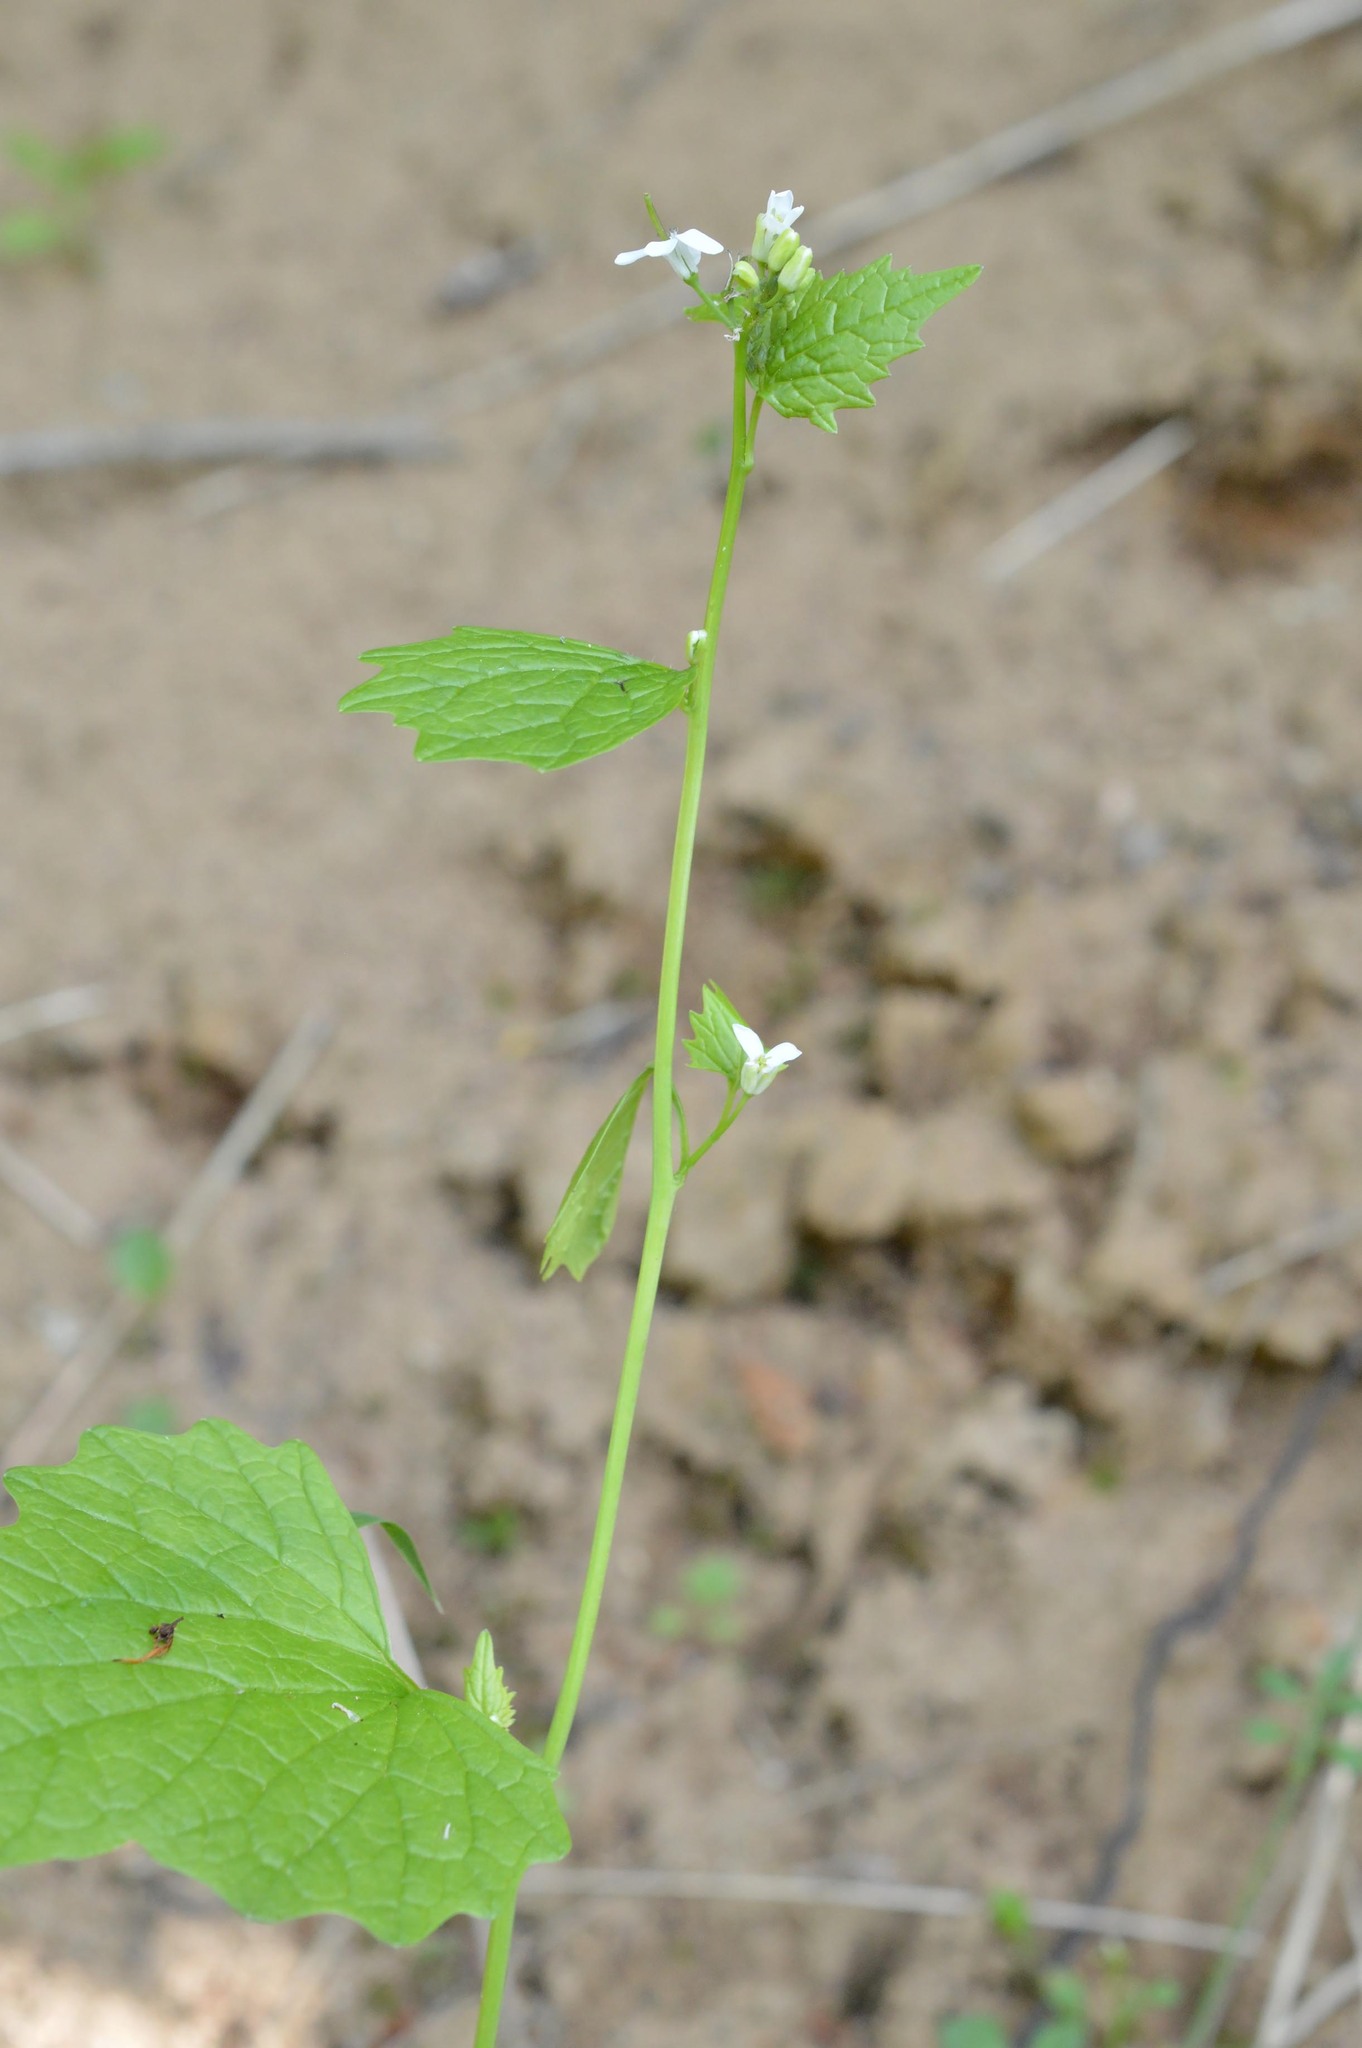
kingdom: Plantae
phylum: Tracheophyta
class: Magnoliopsida
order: Brassicales
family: Brassicaceae
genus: Alliaria
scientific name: Alliaria petiolata
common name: Garlic mustard
